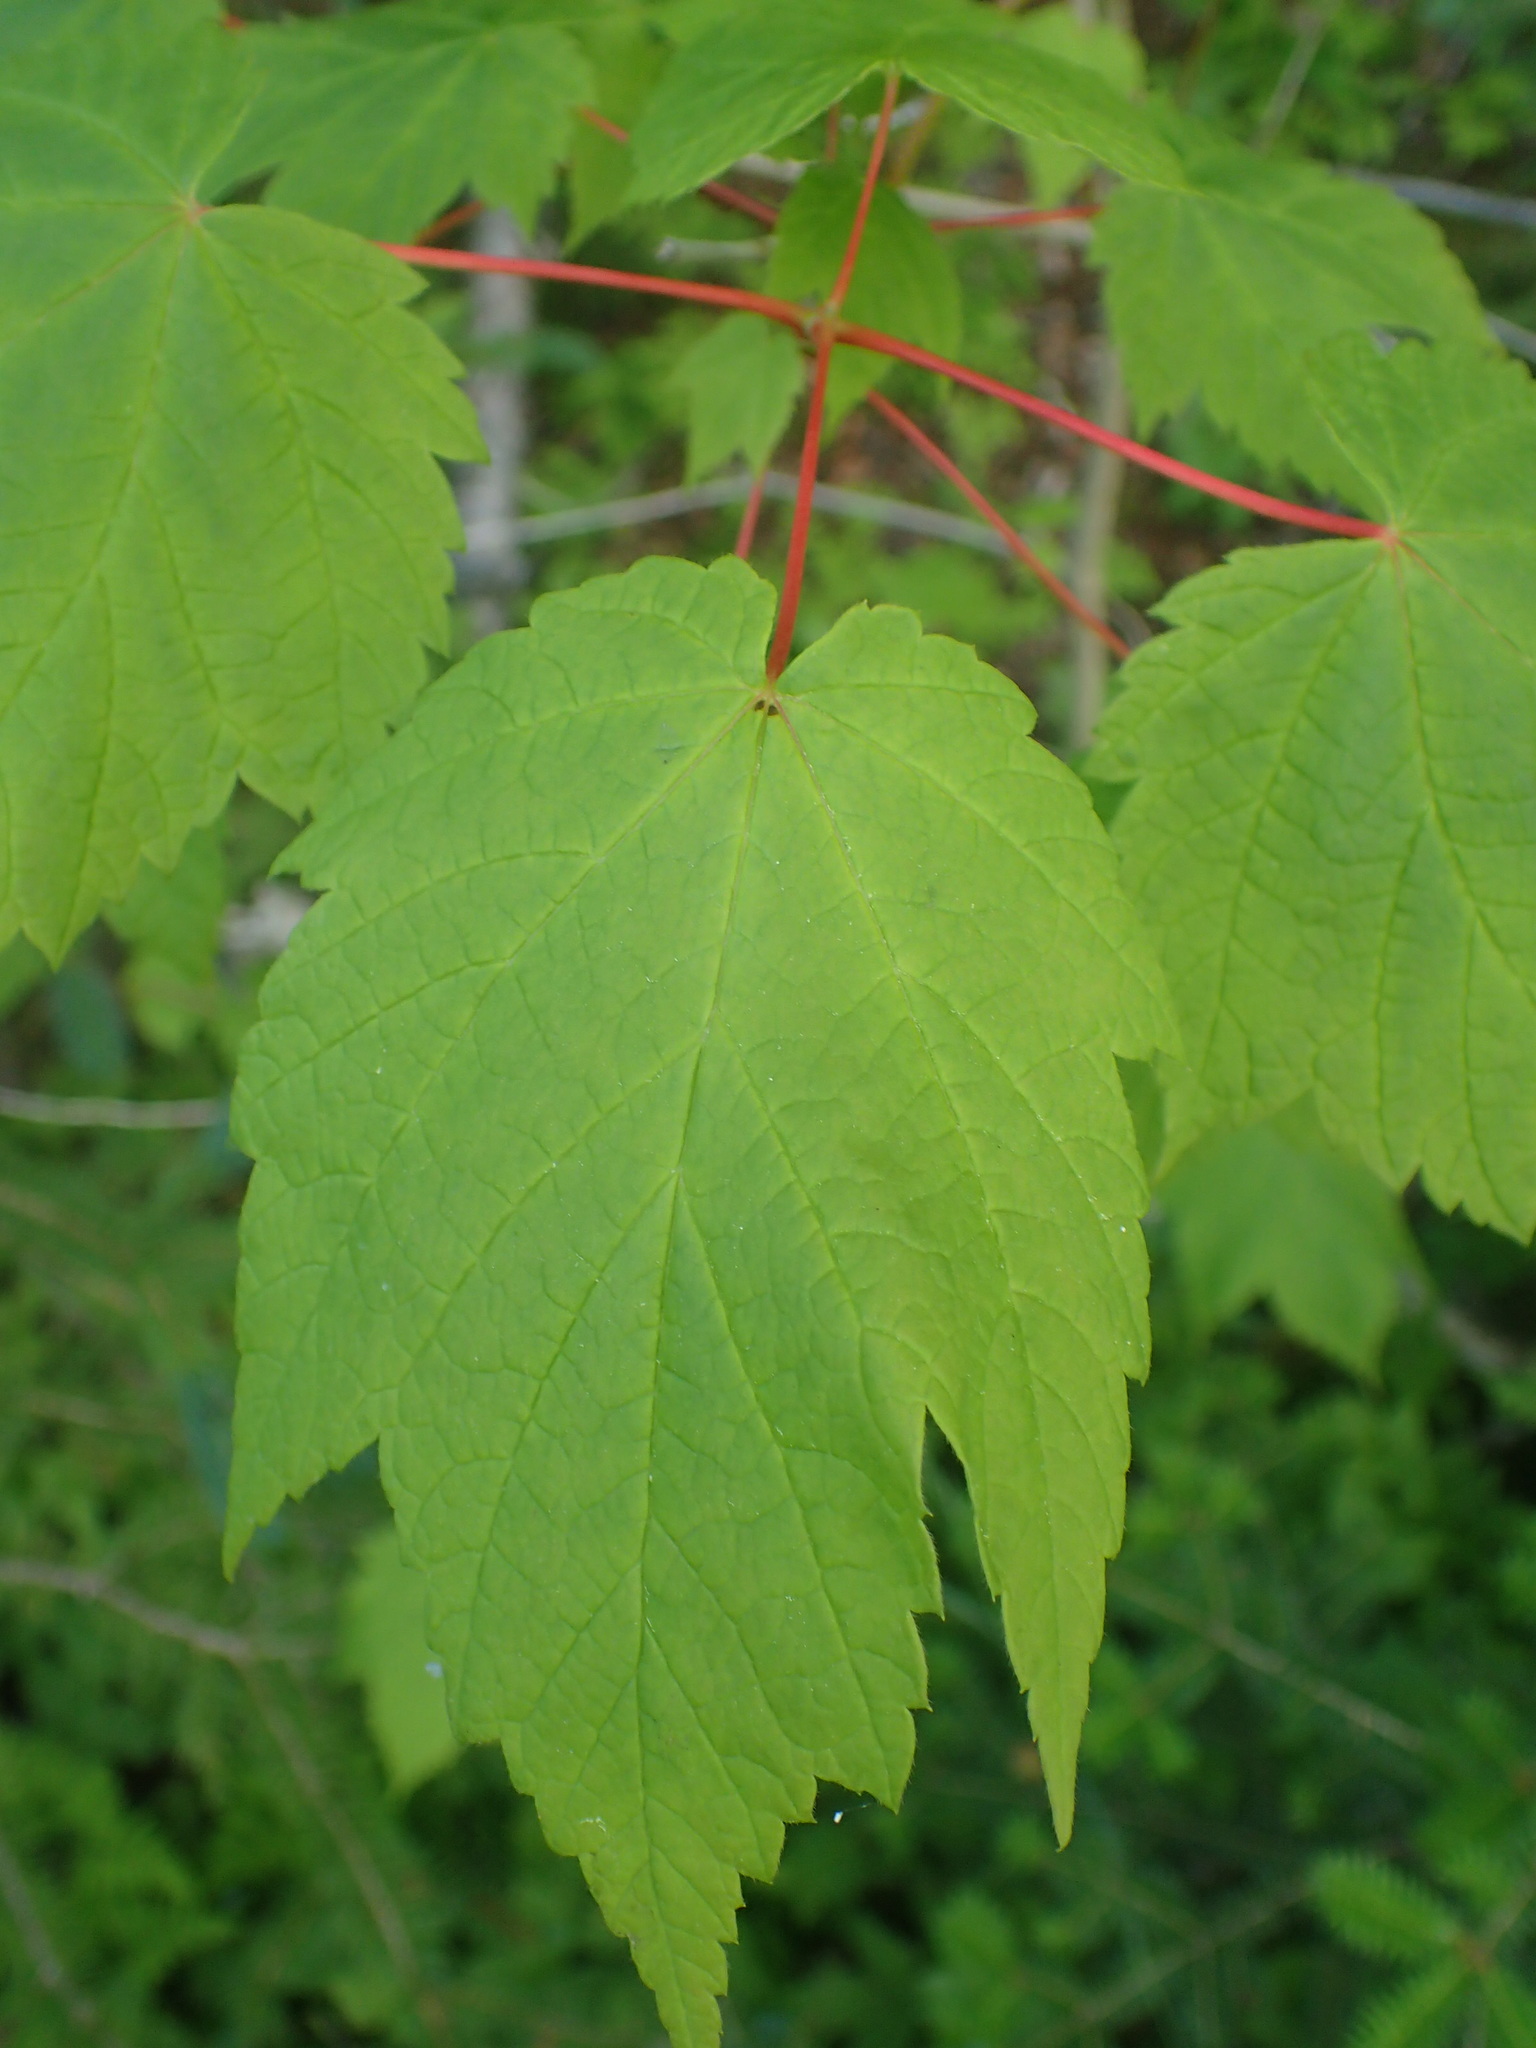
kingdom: Plantae
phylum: Tracheophyta
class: Magnoliopsida
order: Sapindales
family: Sapindaceae
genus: Acer
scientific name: Acer spicatum
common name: Mountain maple
